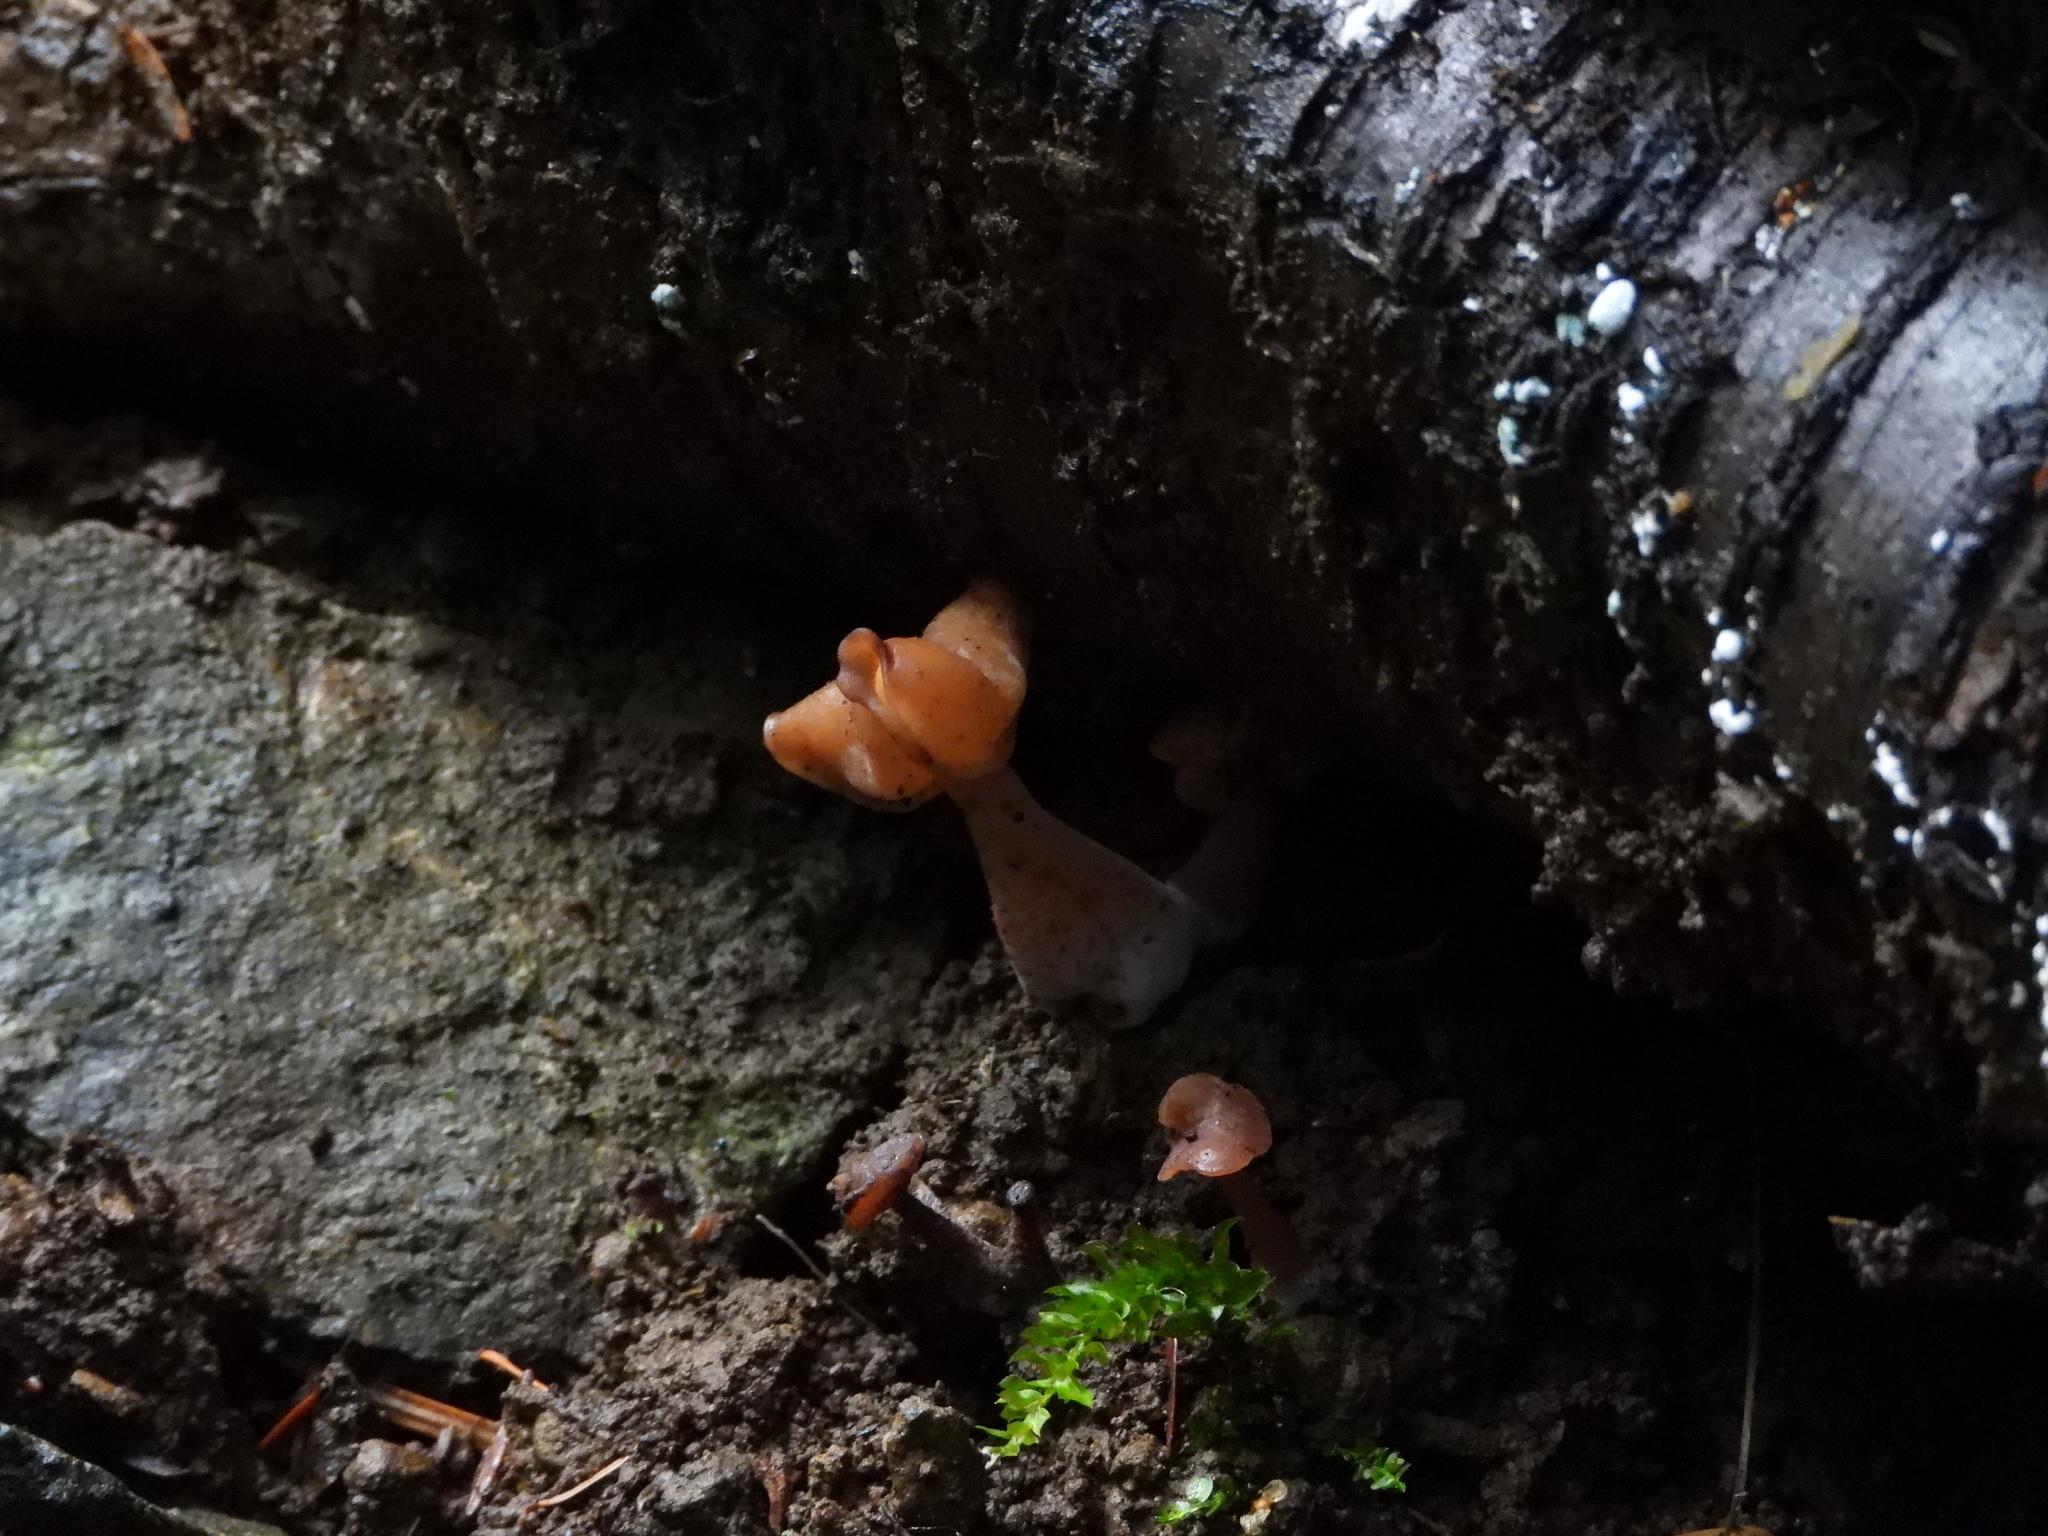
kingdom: Fungi
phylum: Ascomycota
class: Pezizomycetes
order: Pezizales
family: Discinaceae
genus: Gyromitra
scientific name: Gyromitra infula
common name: Pouched false morel
